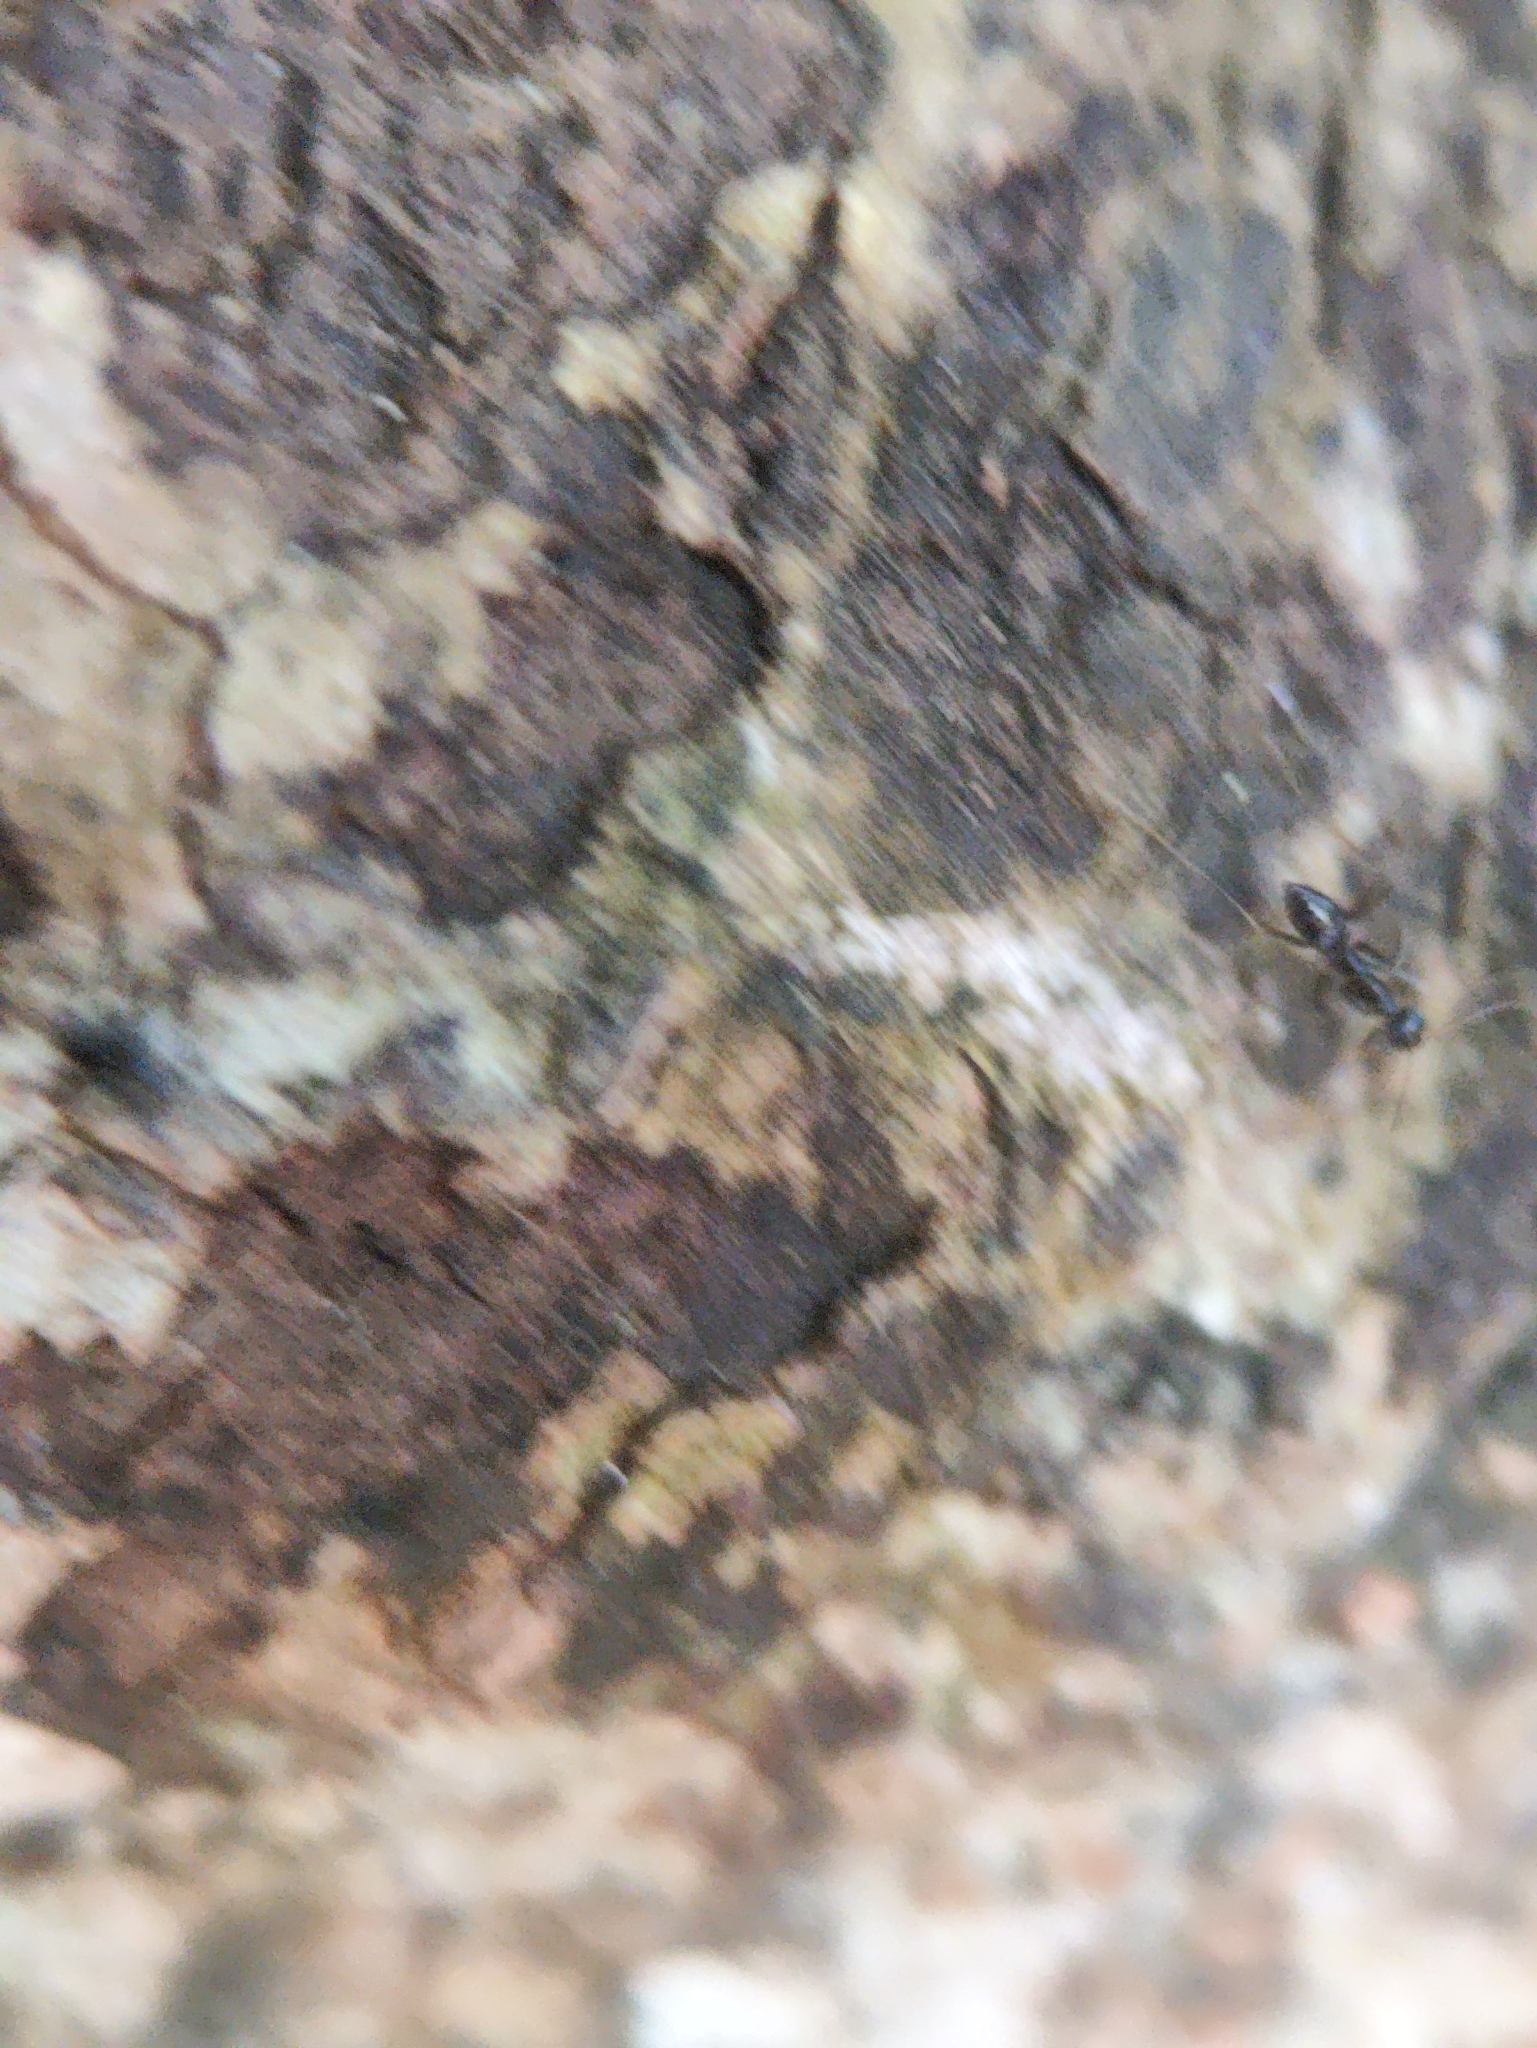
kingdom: Animalia
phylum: Arthropoda
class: Insecta
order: Hymenoptera
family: Formicidae
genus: Paratrechina
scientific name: Paratrechina longicornis
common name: Longhorned crazy ant
